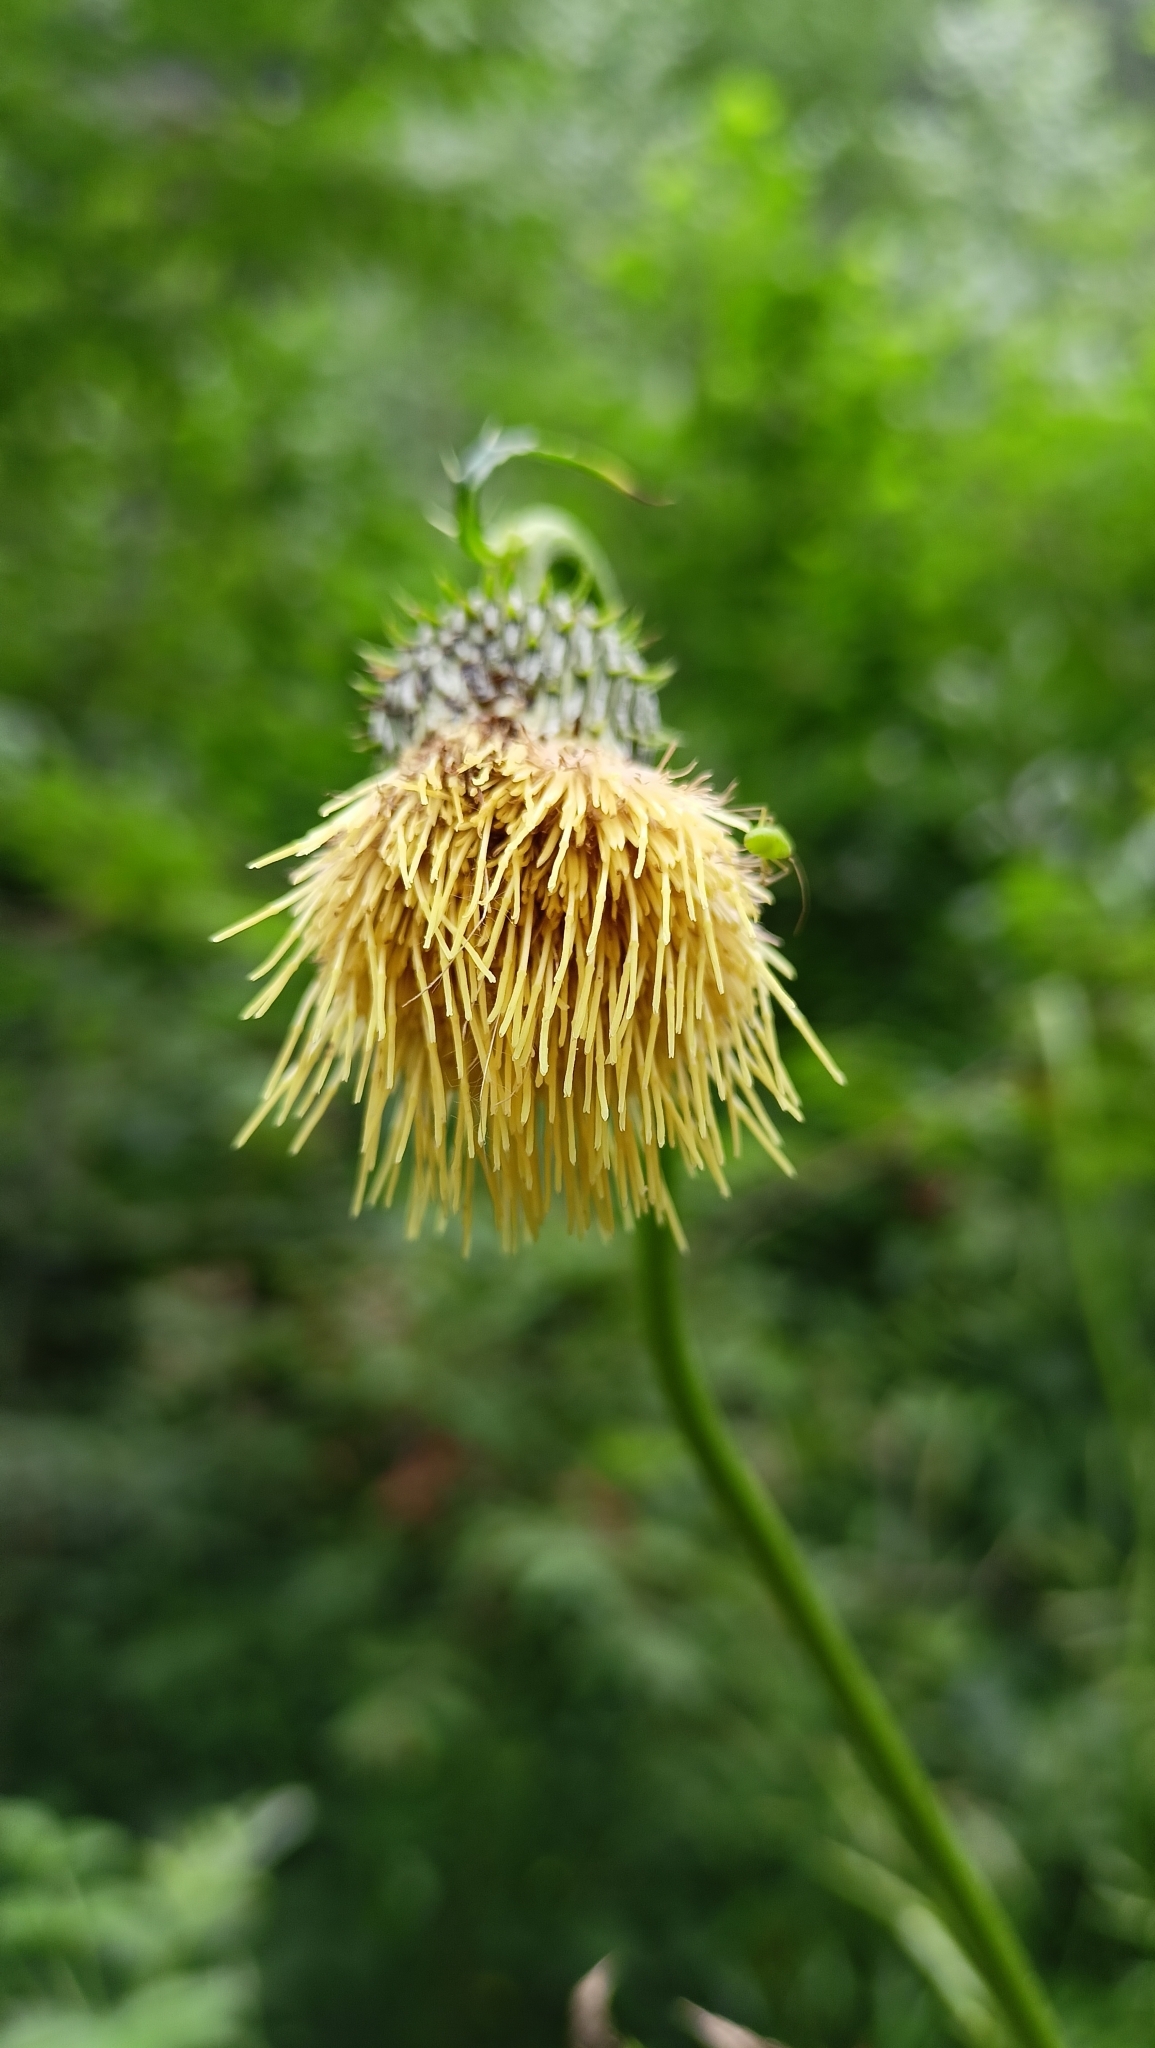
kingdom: Plantae
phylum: Tracheophyta
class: Magnoliopsida
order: Asterales
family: Asteraceae
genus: Cirsium
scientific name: Cirsium erisithales
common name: Yellow thistle
